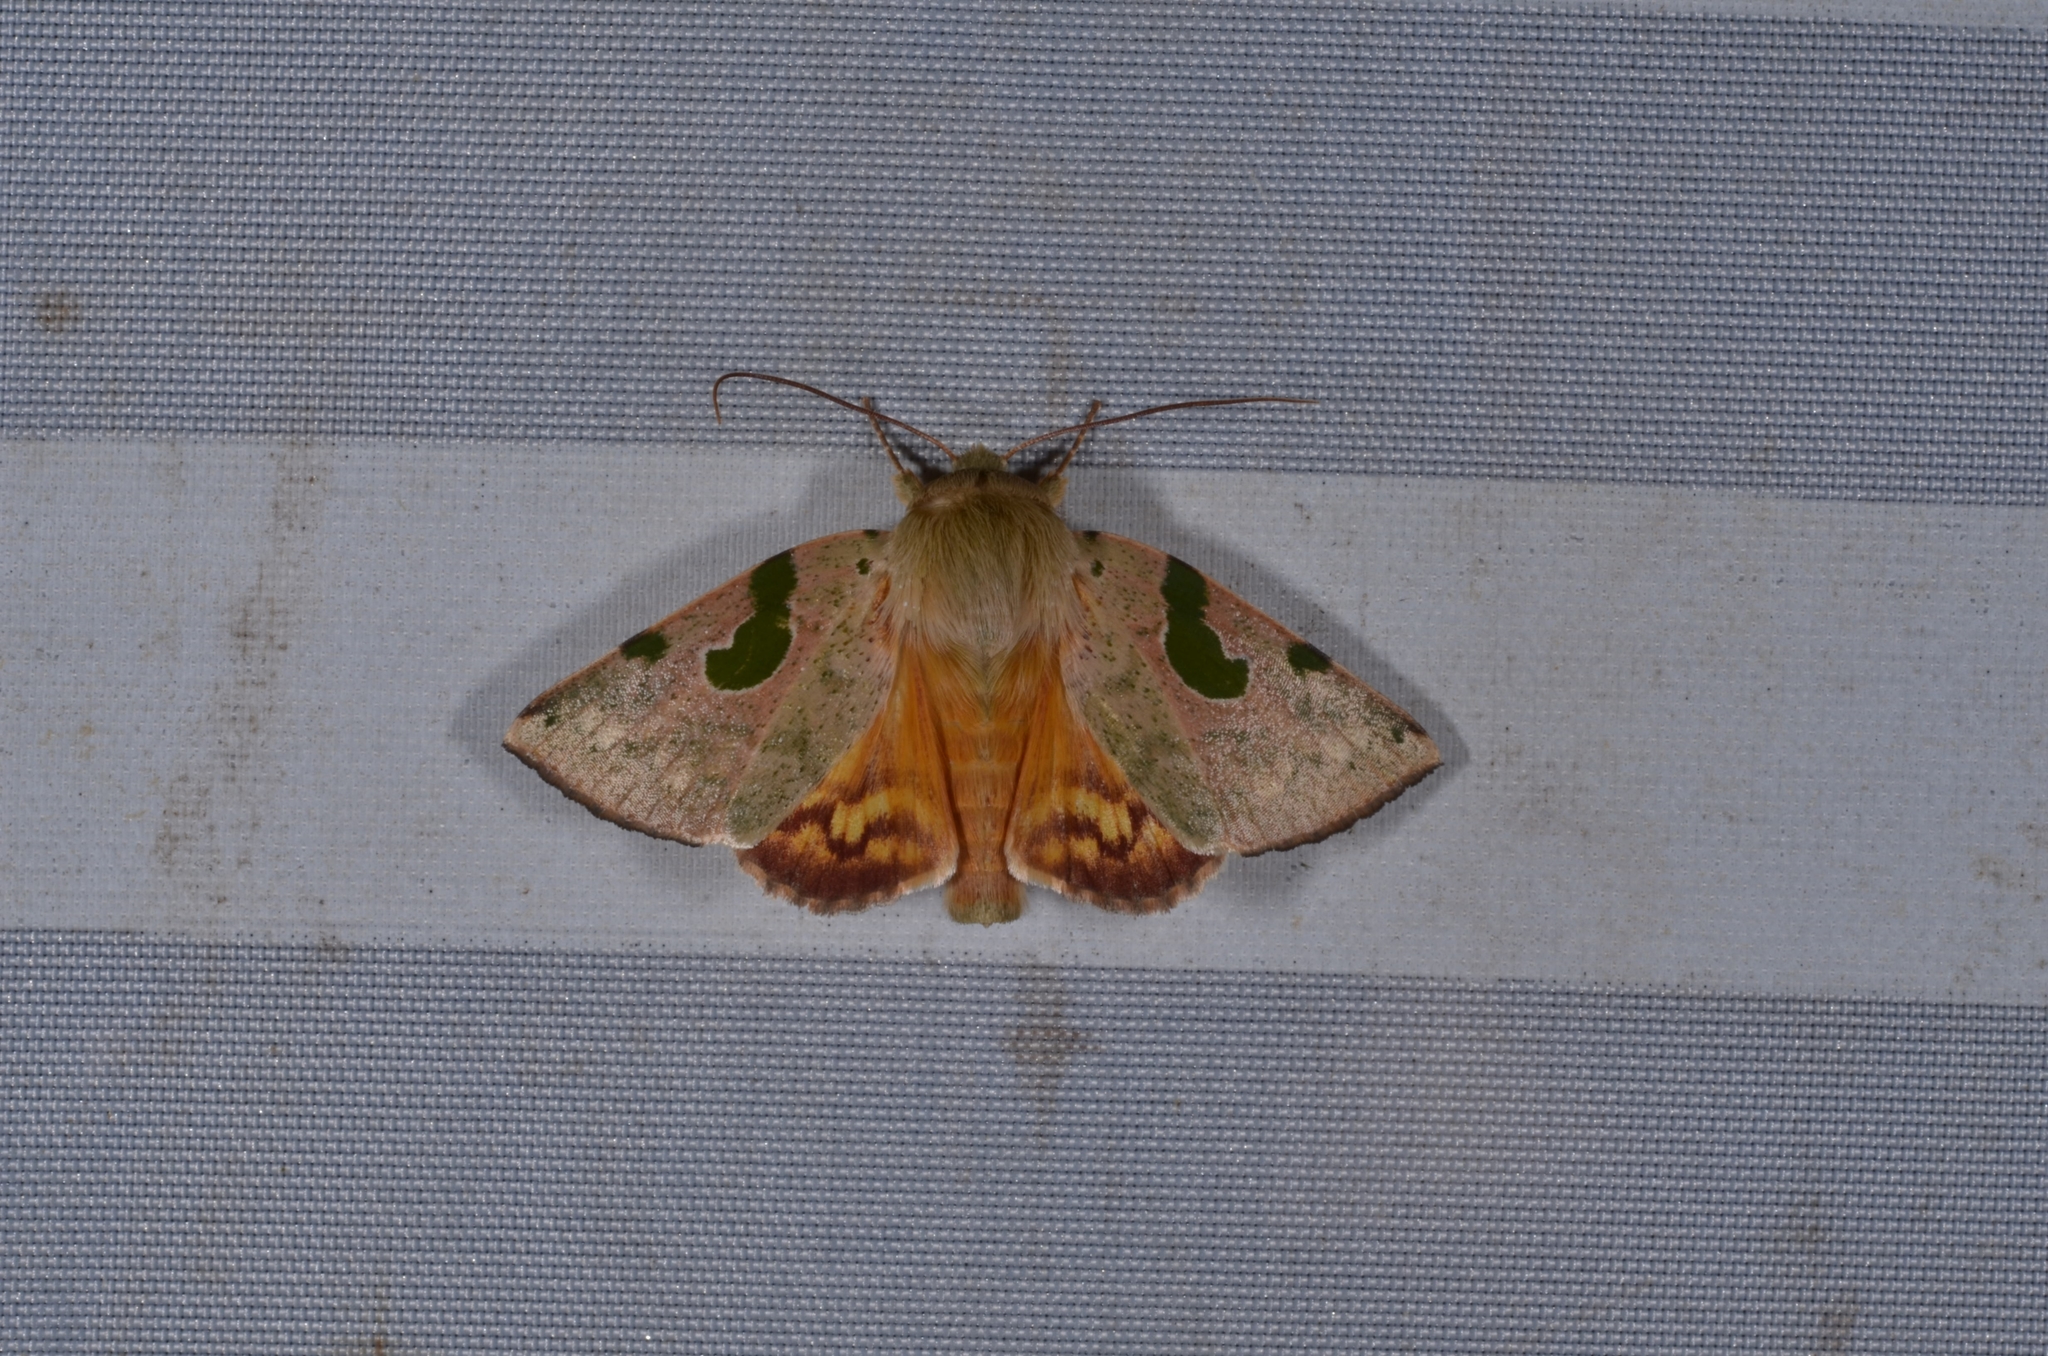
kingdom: Animalia
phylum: Arthropoda
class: Insecta
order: Lepidoptera
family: Nolidae
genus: Chloroplaga
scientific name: Chloroplaga nygmia
